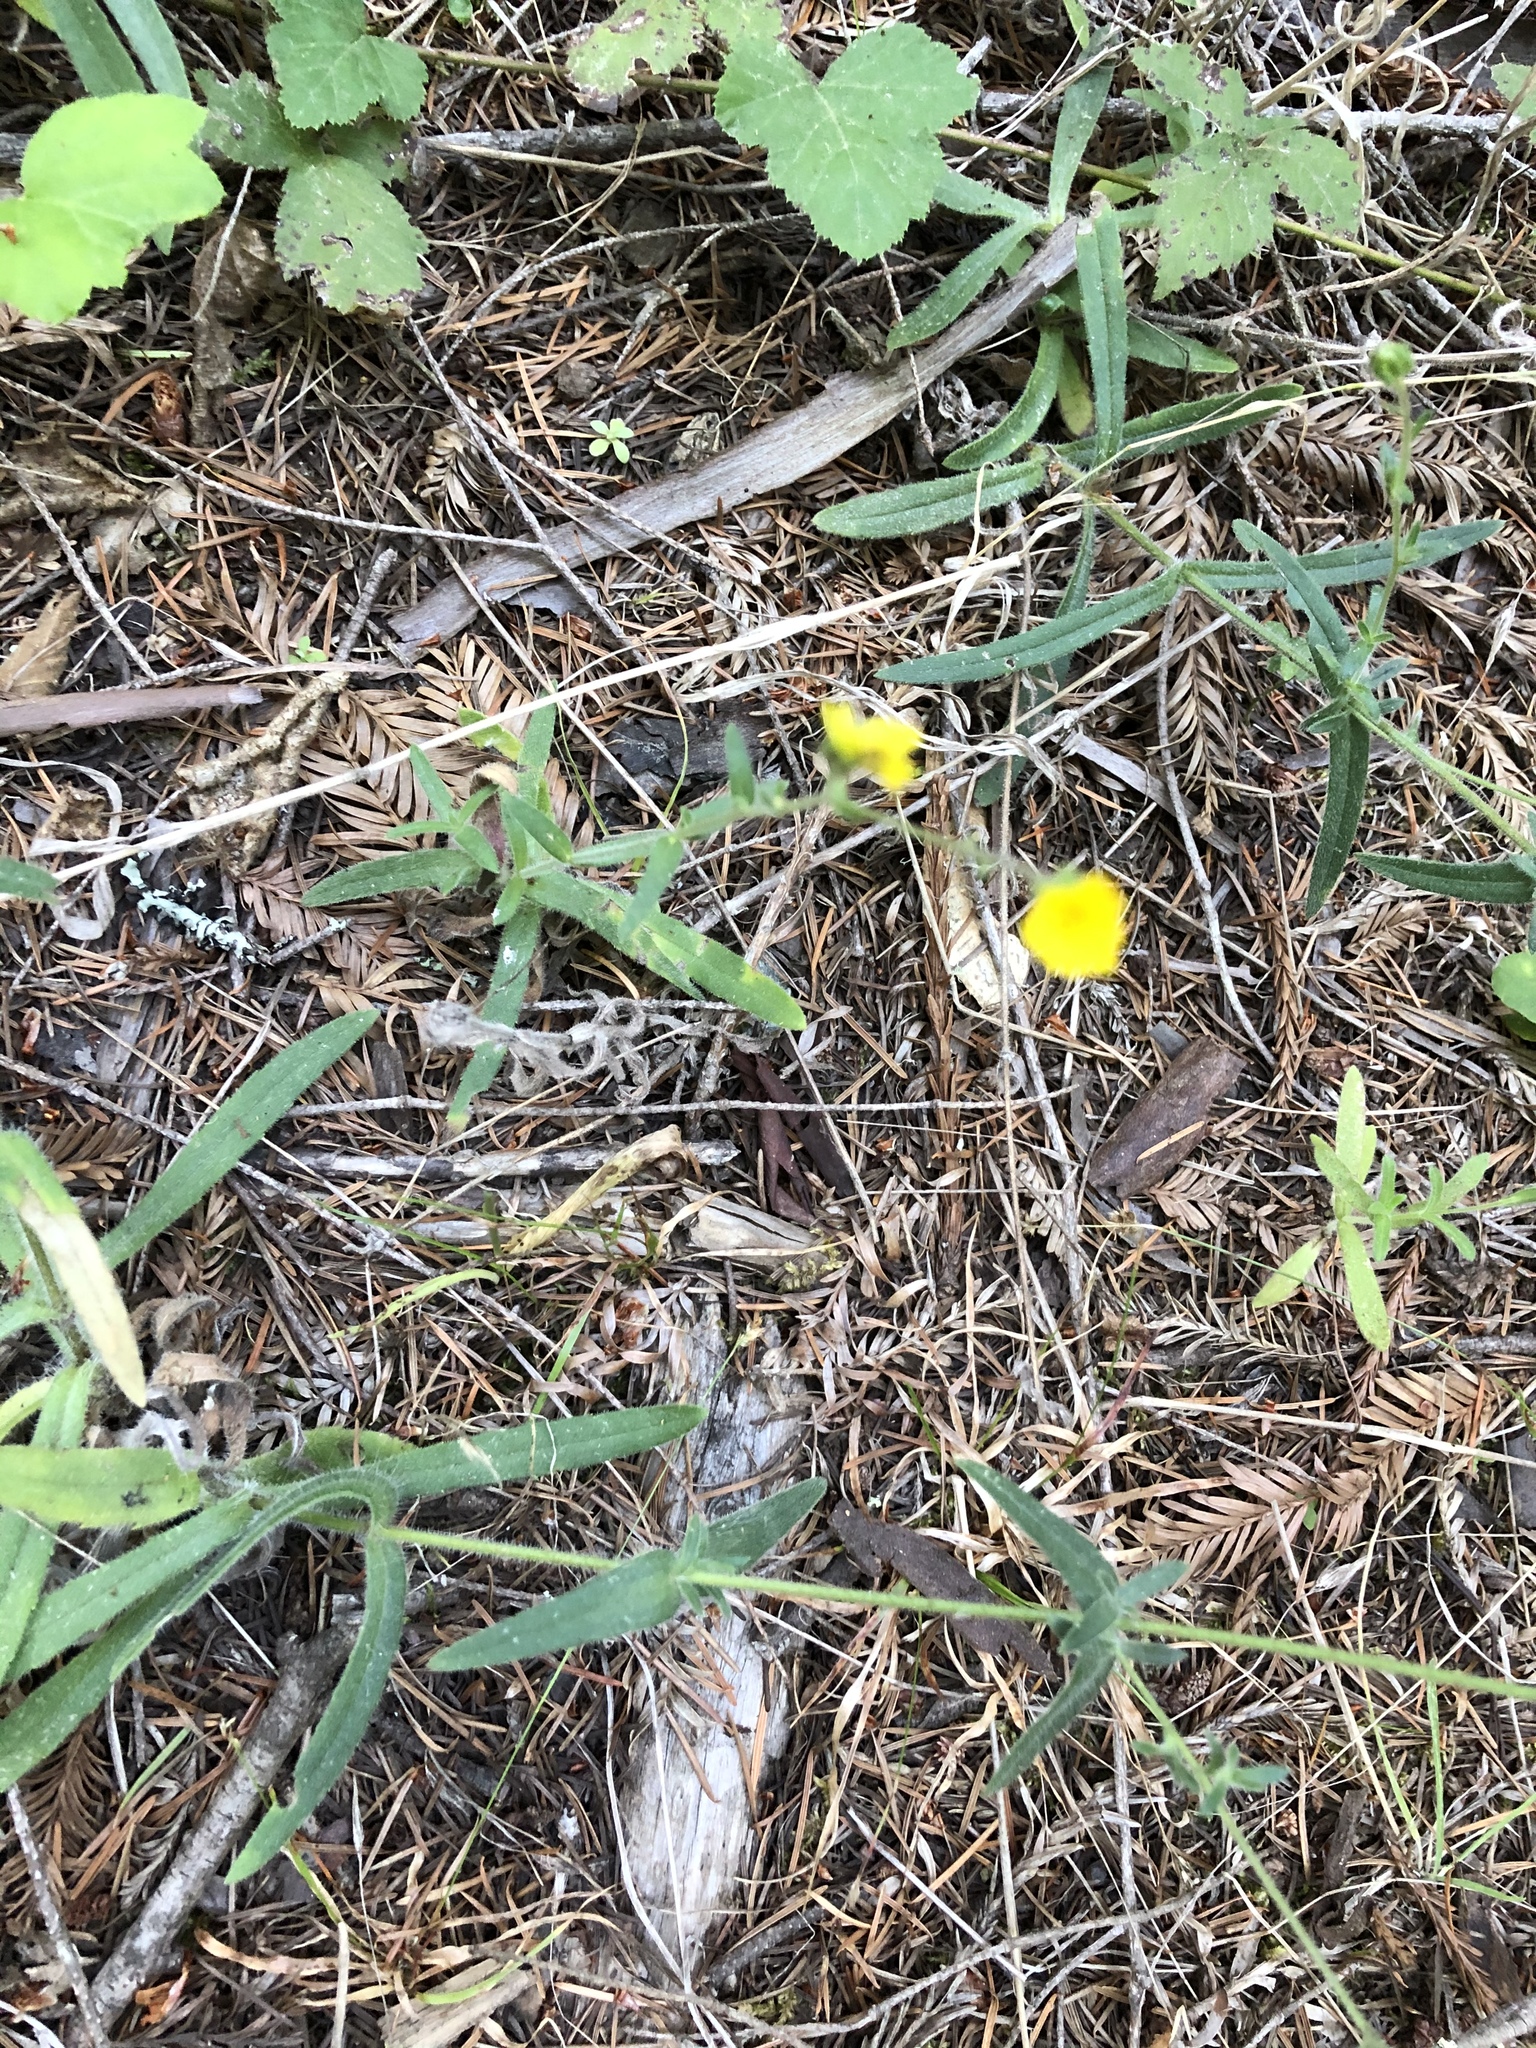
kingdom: Plantae
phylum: Tracheophyta
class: Magnoliopsida
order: Asterales
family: Asteraceae
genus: Anisocarpus
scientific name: Anisocarpus madioides
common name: Woodland madia
